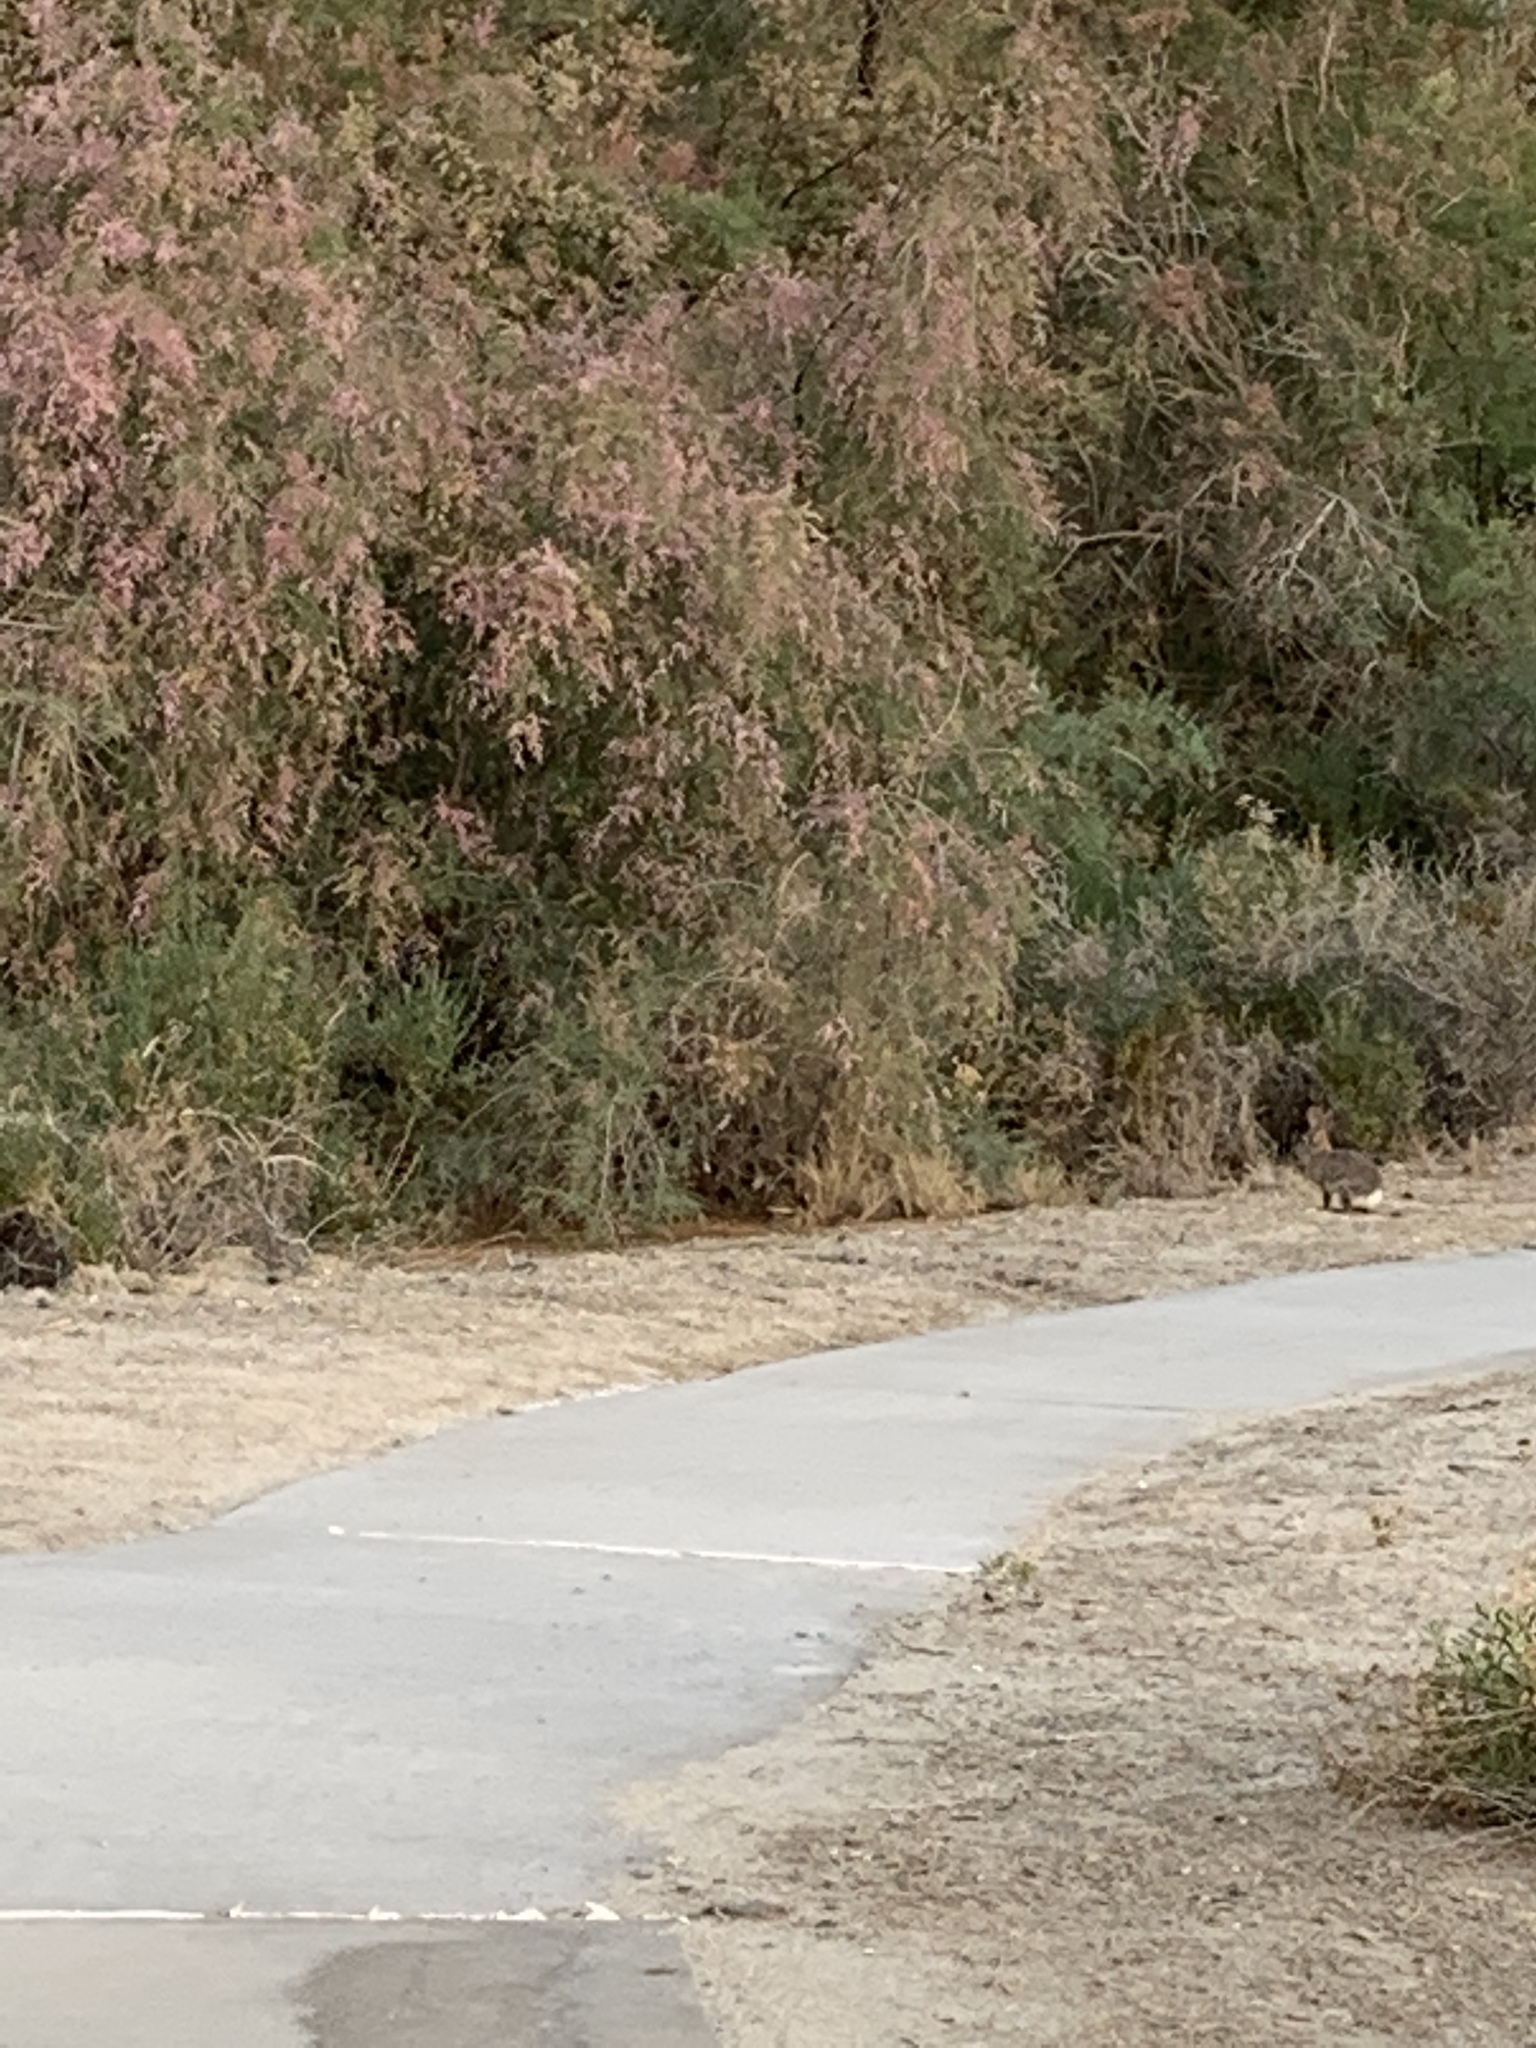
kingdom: Animalia
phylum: Chordata
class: Mammalia
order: Lagomorpha
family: Leporidae
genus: Sylvilagus
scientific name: Sylvilagus audubonii
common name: Desert cottontail
